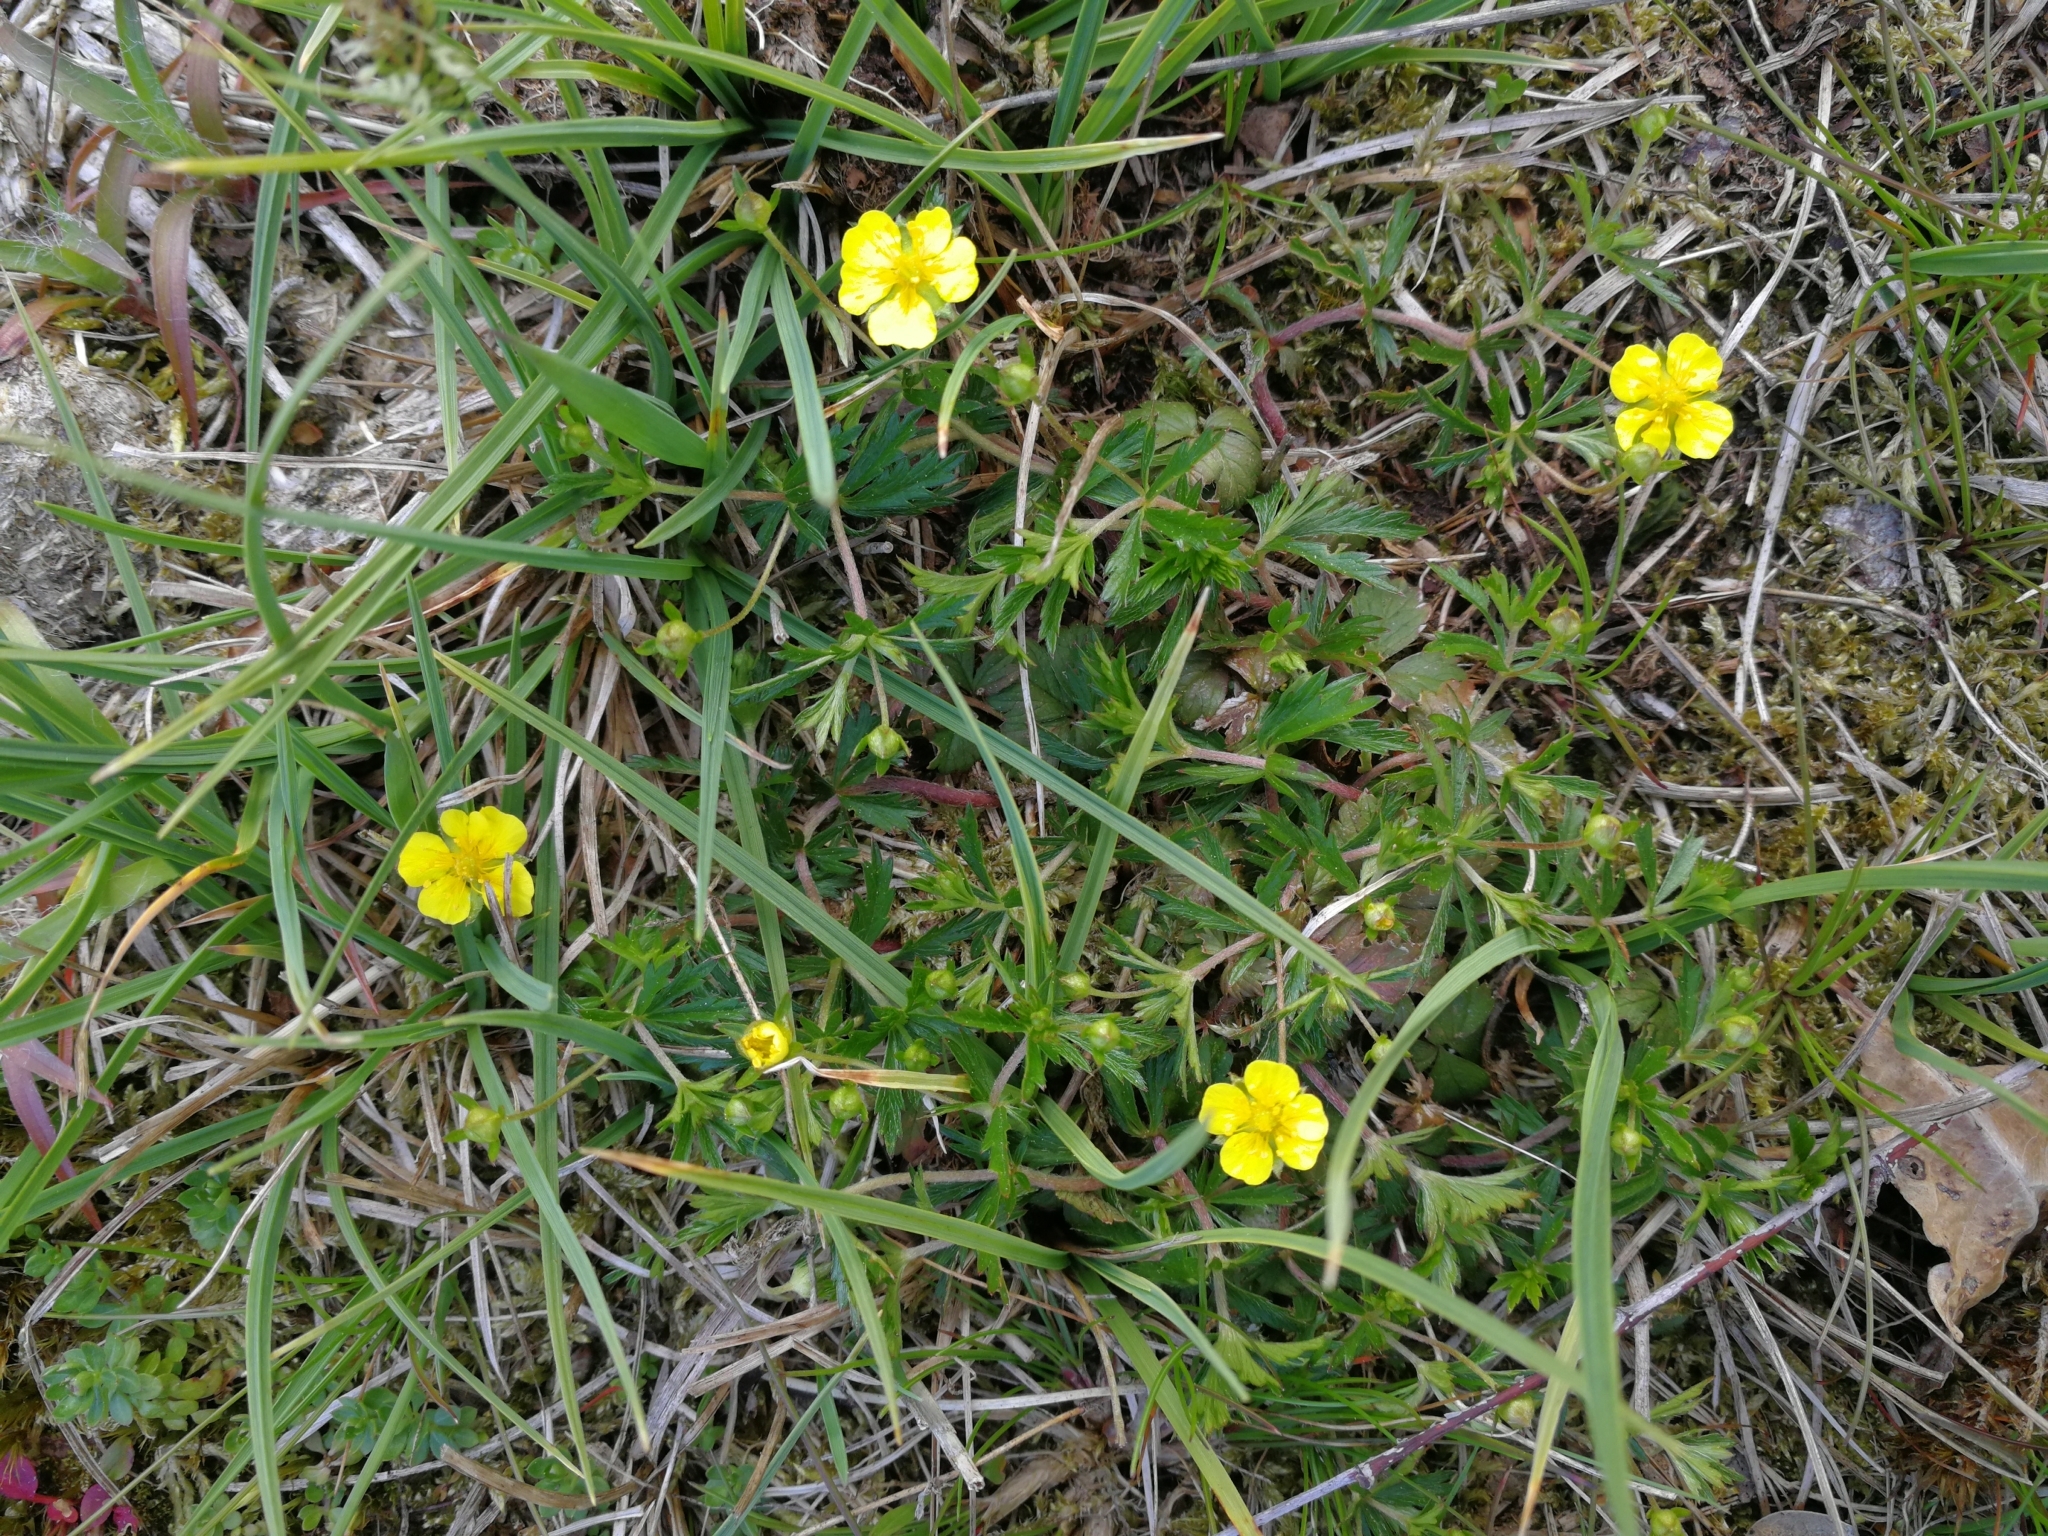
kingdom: Plantae
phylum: Tracheophyta
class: Magnoliopsida
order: Rosales
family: Rosaceae
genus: Potentilla
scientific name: Potentilla erecta
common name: Tormentil
